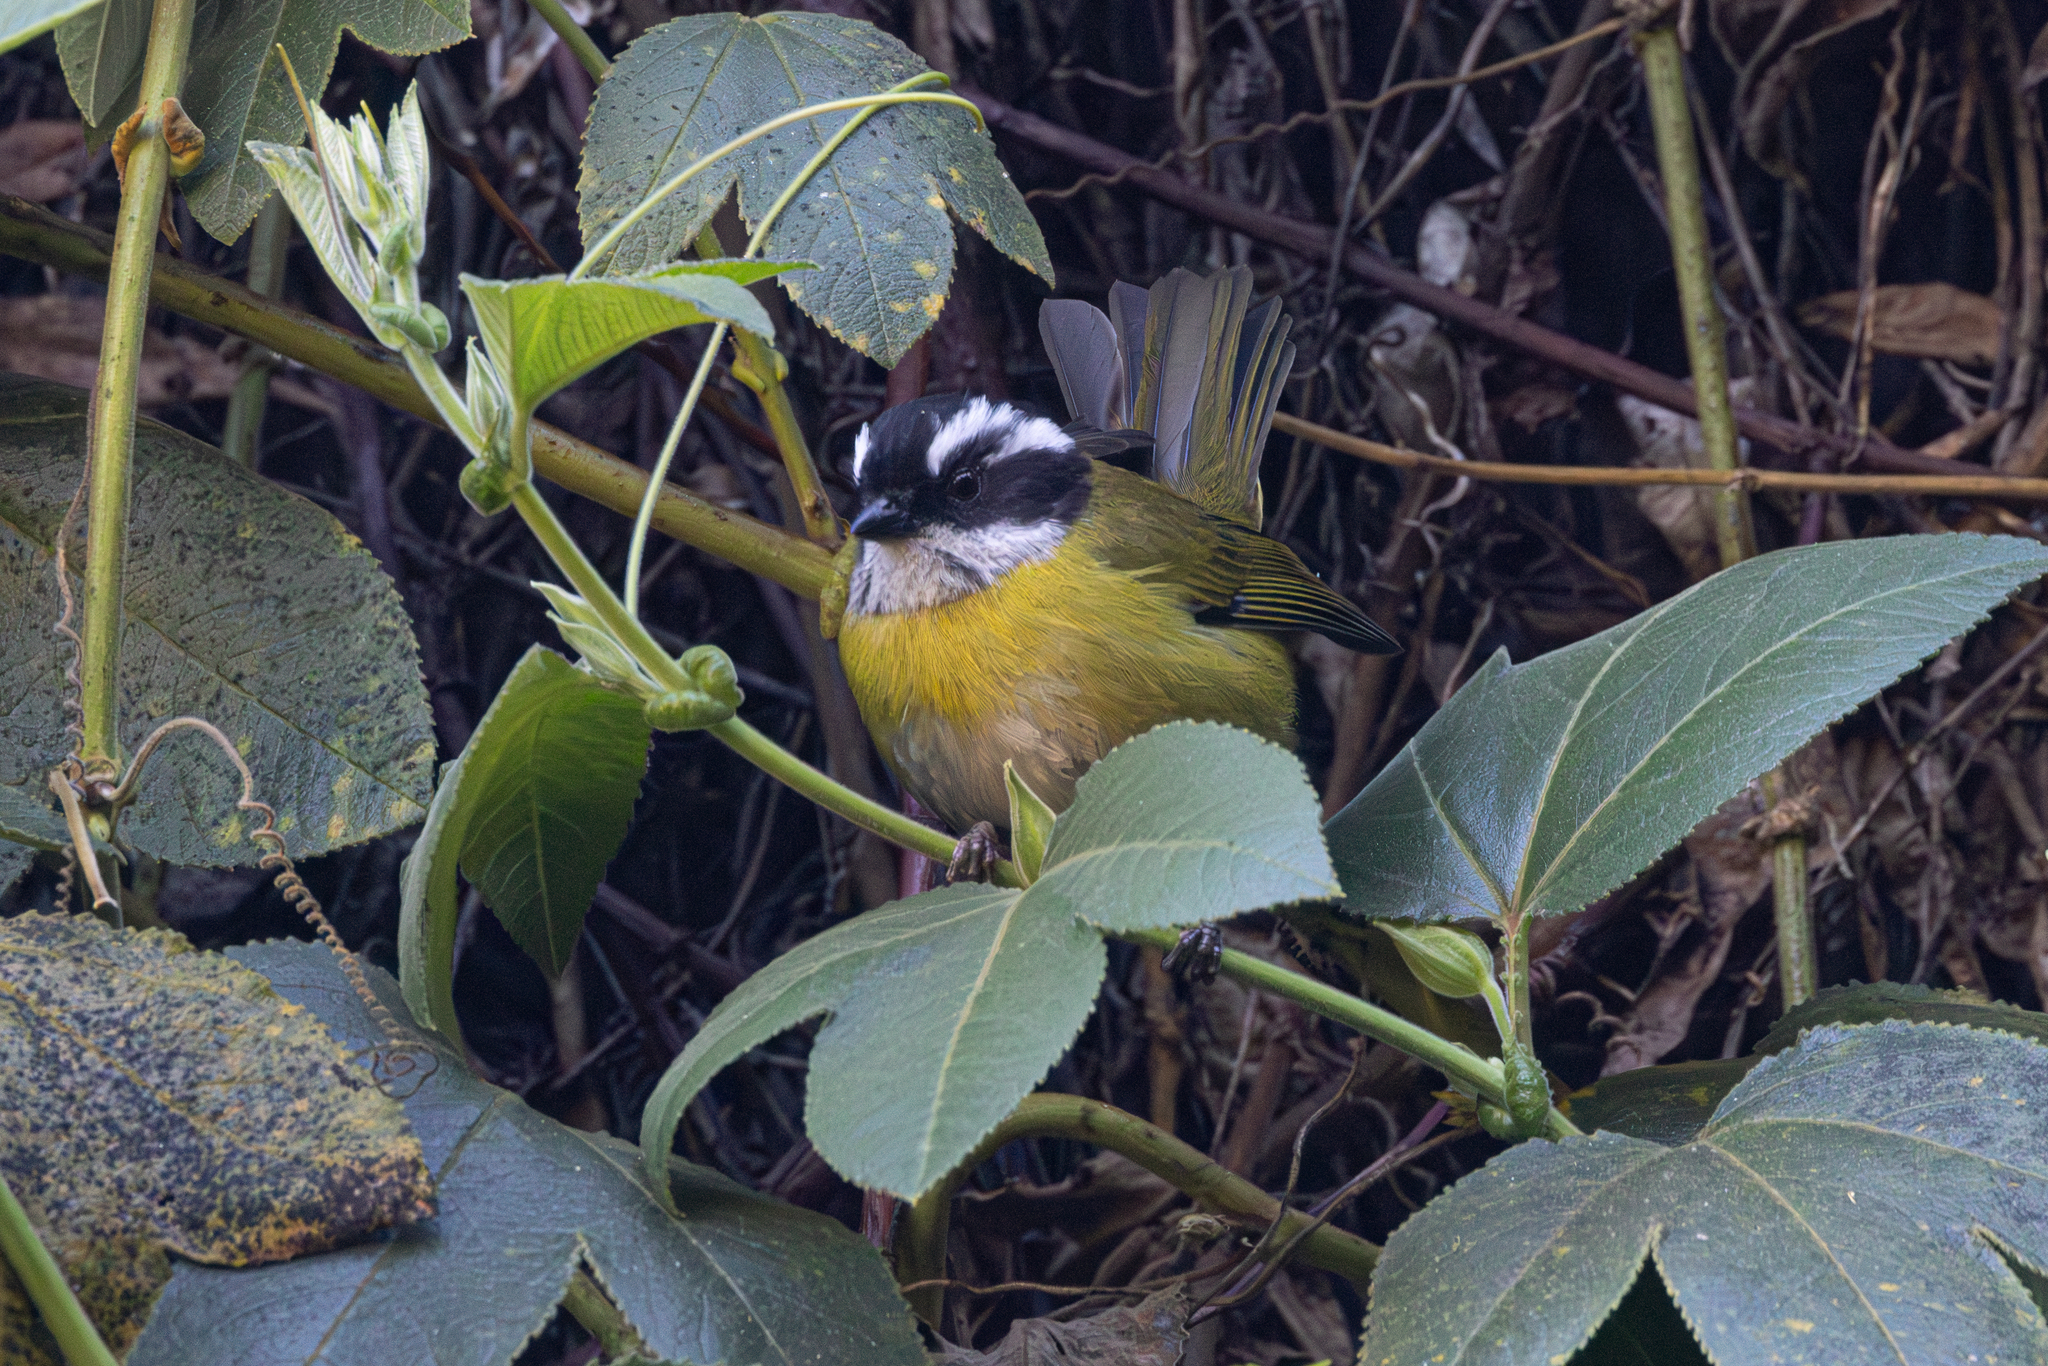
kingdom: Animalia
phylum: Chordata
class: Aves
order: Passeriformes
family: Passerellidae
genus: Chlorospingus
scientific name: Chlorospingus pileatus
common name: Sooty-capped bush-tanager
